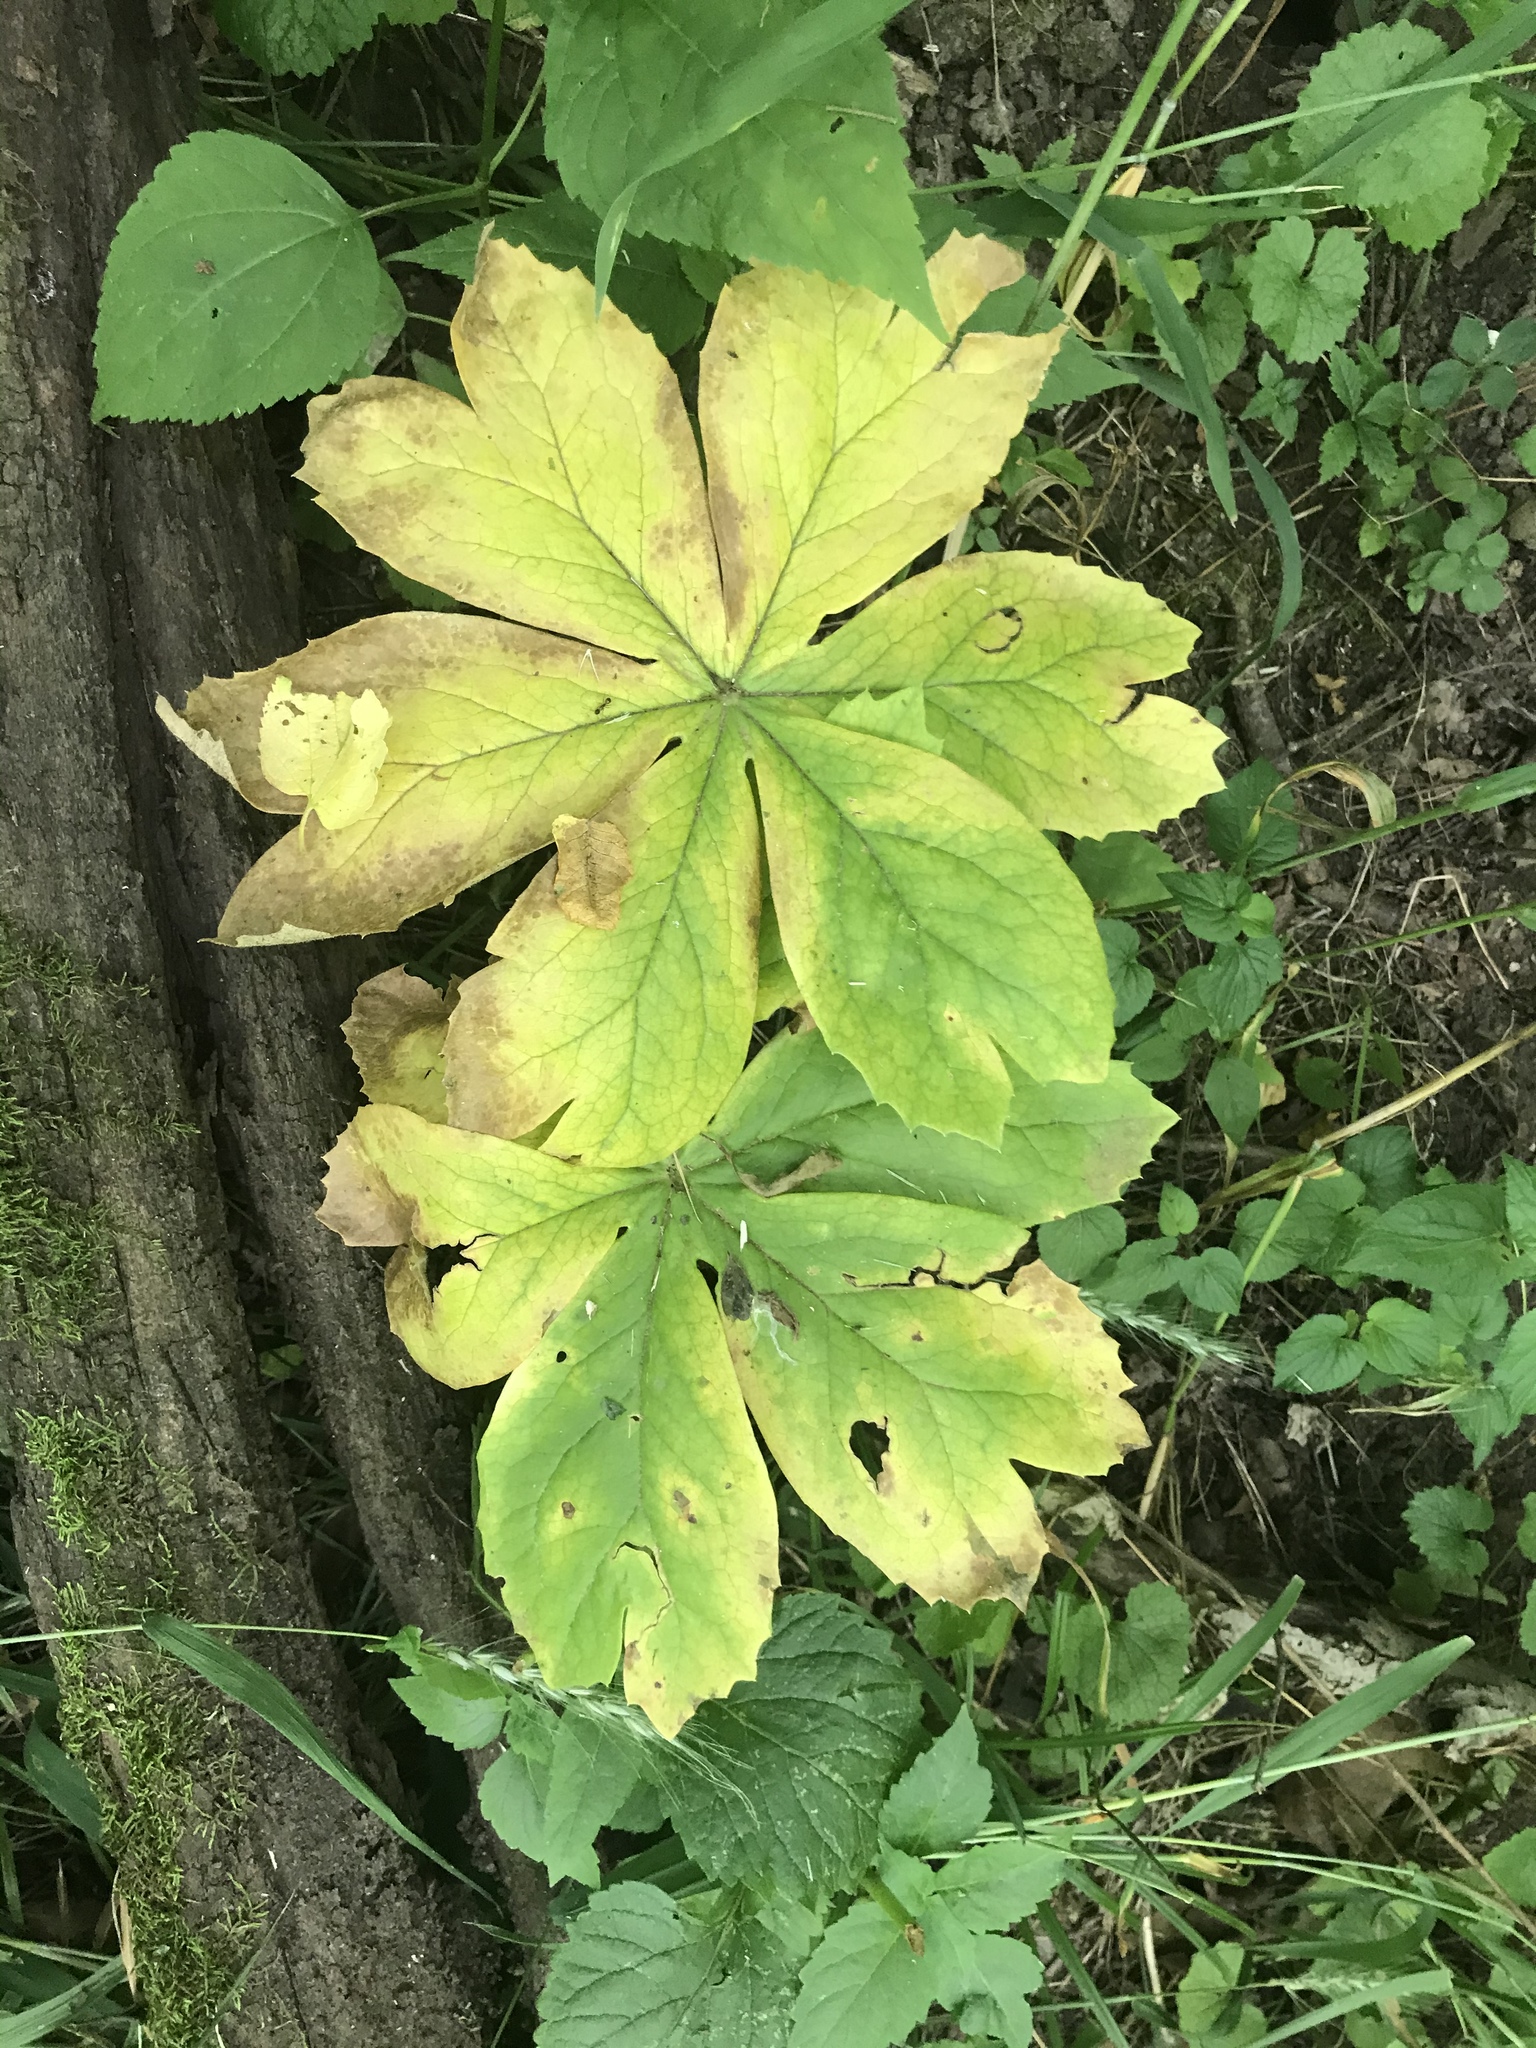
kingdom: Plantae
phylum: Tracheophyta
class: Magnoliopsida
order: Ranunculales
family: Berberidaceae
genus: Podophyllum
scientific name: Podophyllum peltatum
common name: Wild mandrake
